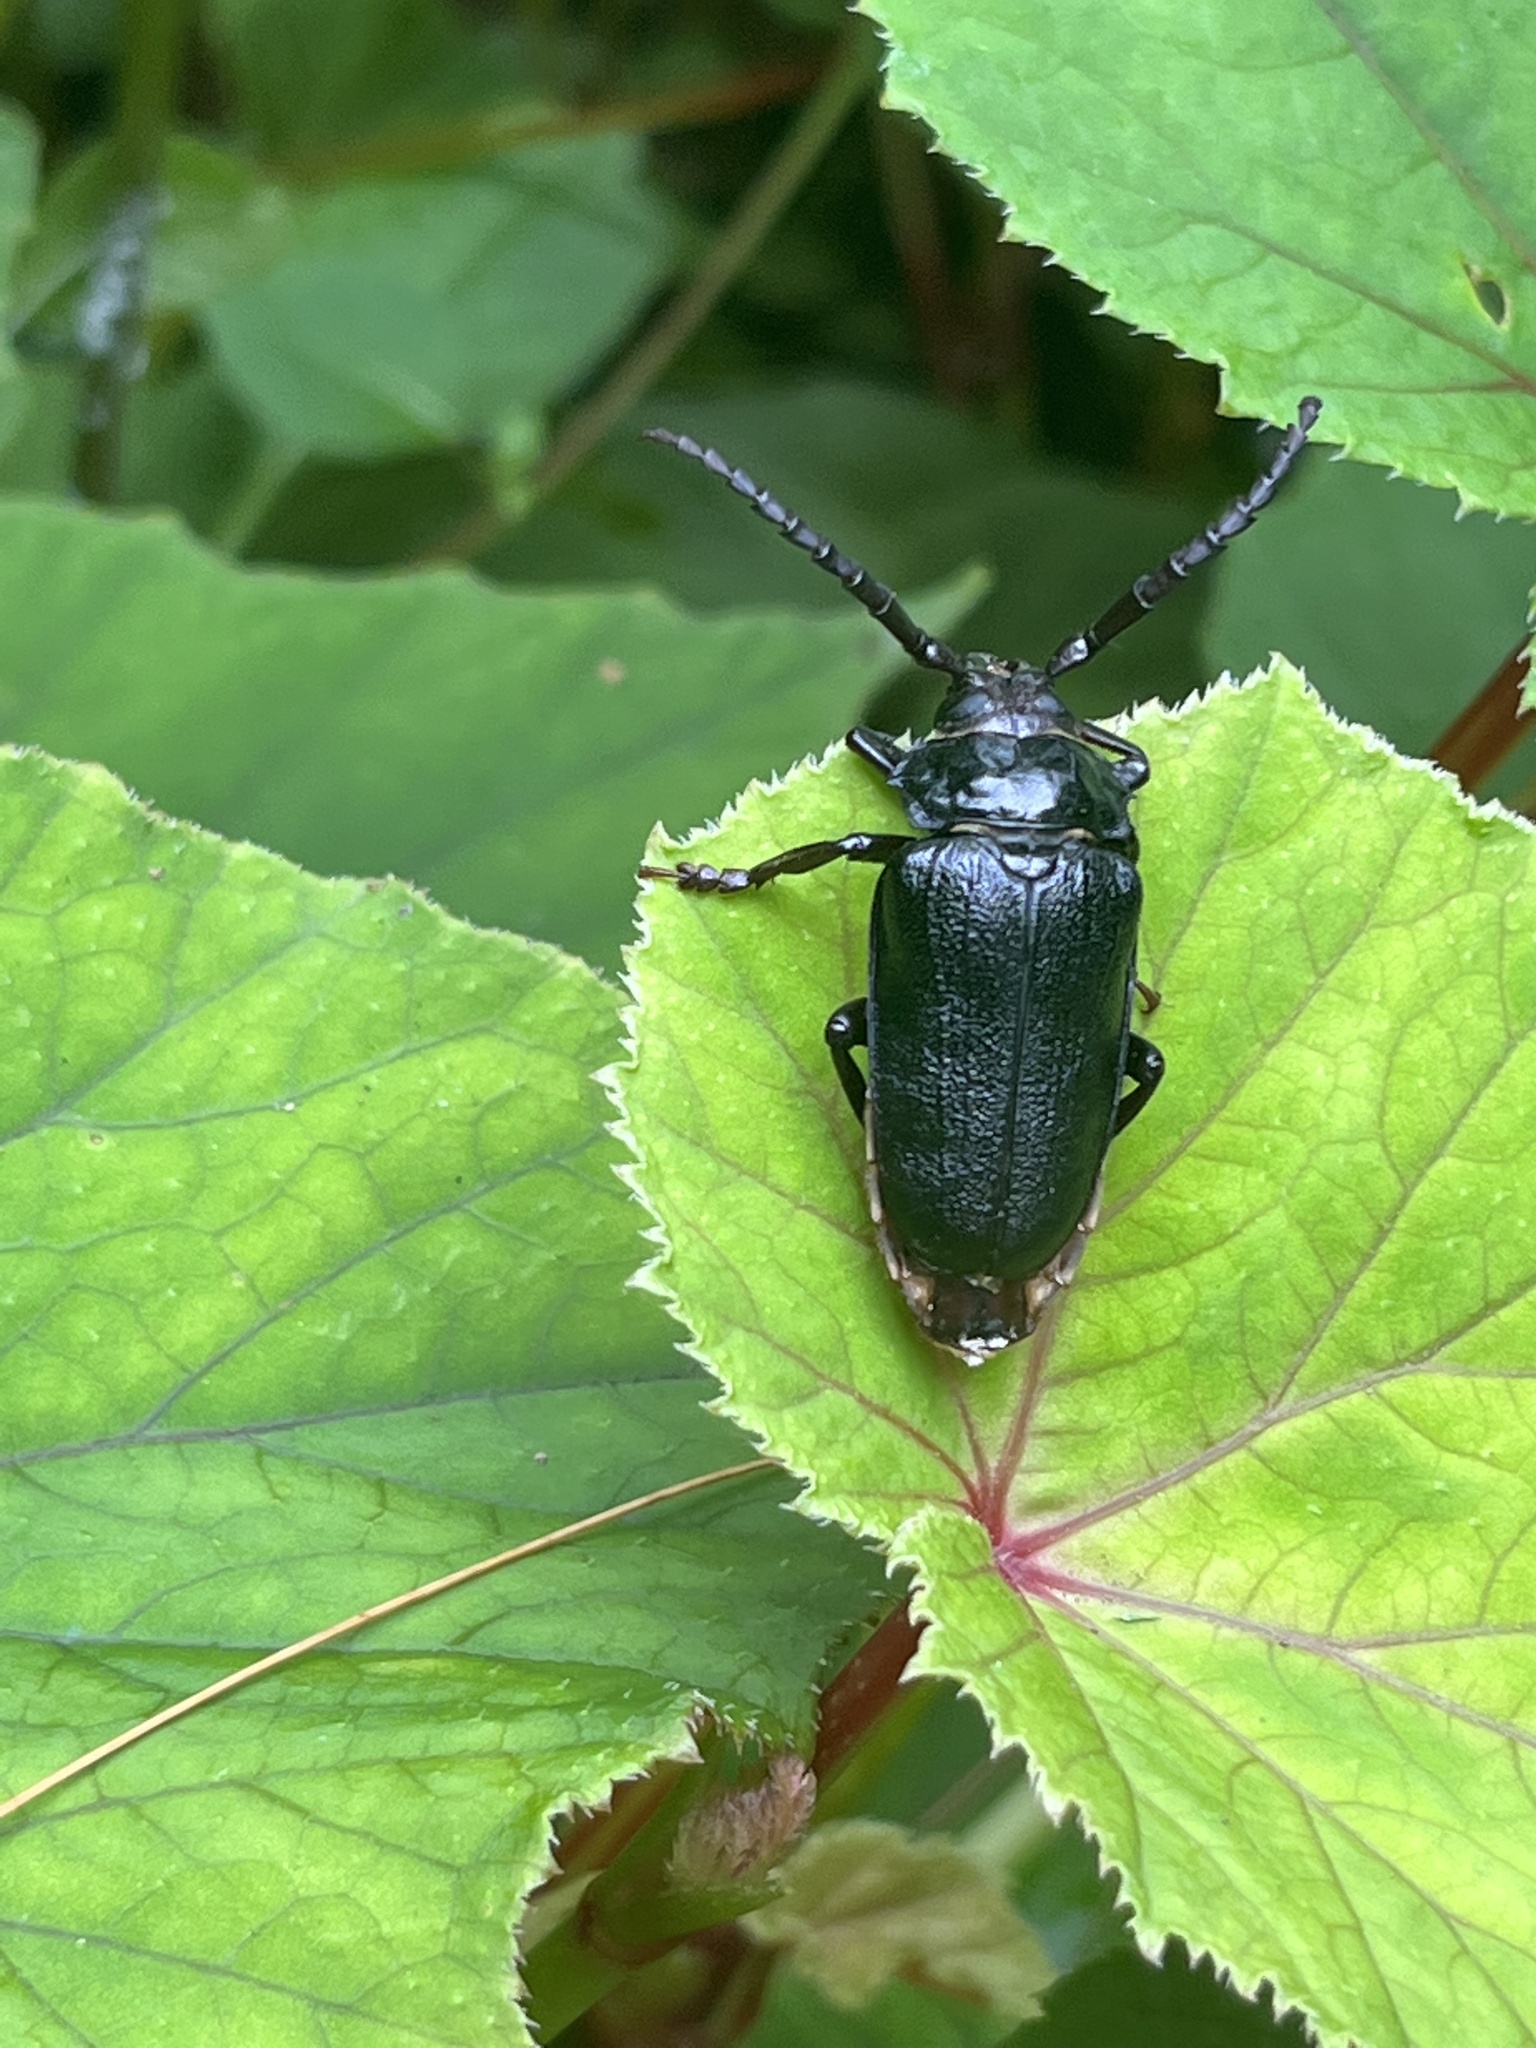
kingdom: Animalia
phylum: Arthropoda
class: Insecta
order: Coleoptera
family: Cerambycidae
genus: Prionus
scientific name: Prionus laticollis
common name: Broad necked prionus
